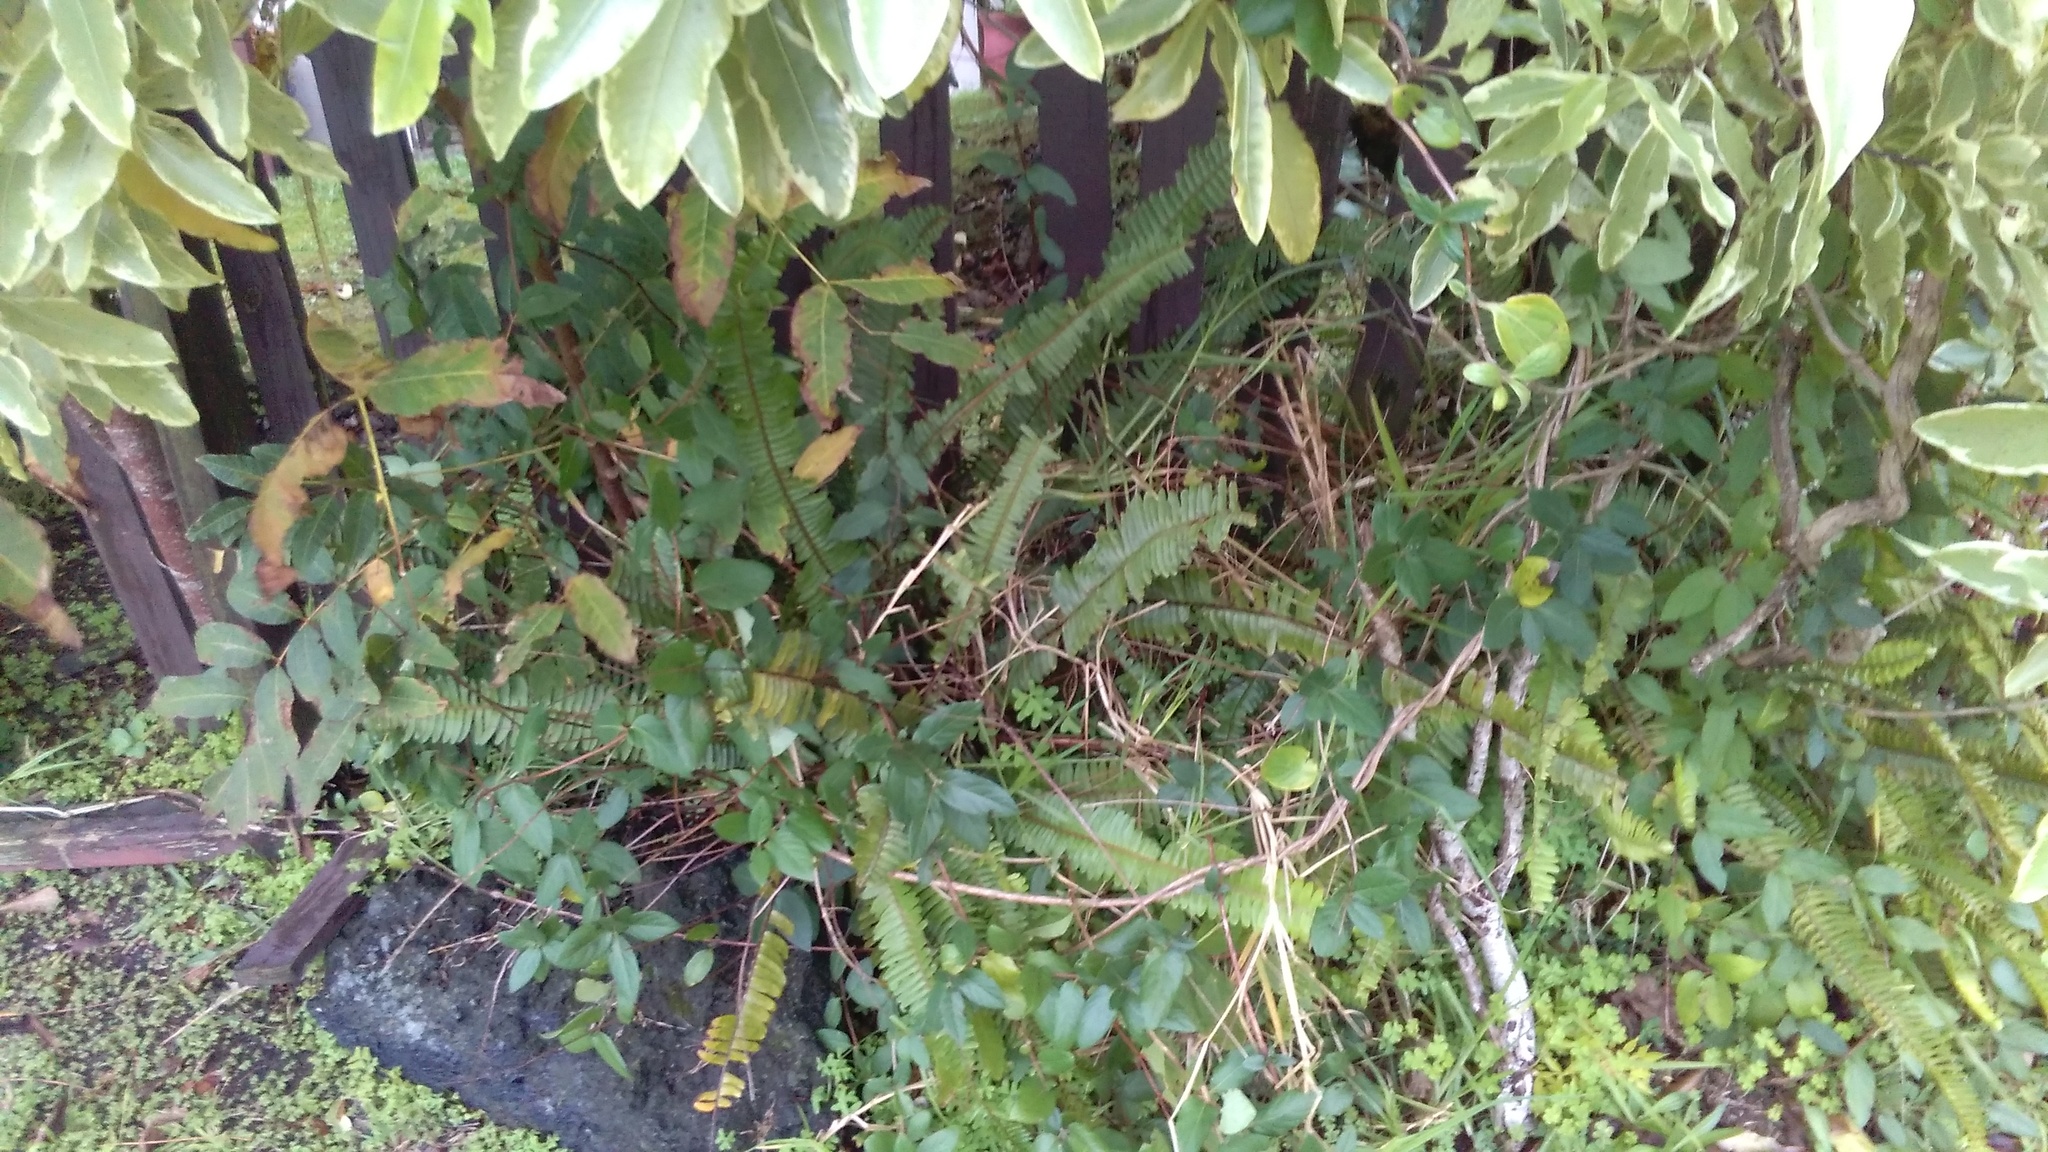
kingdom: Plantae
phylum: Tracheophyta
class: Magnoliopsida
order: Dipsacales
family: Caprifoliaceae
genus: Lonicera
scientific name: Lonicera japonica
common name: Japanese honeysuckle
